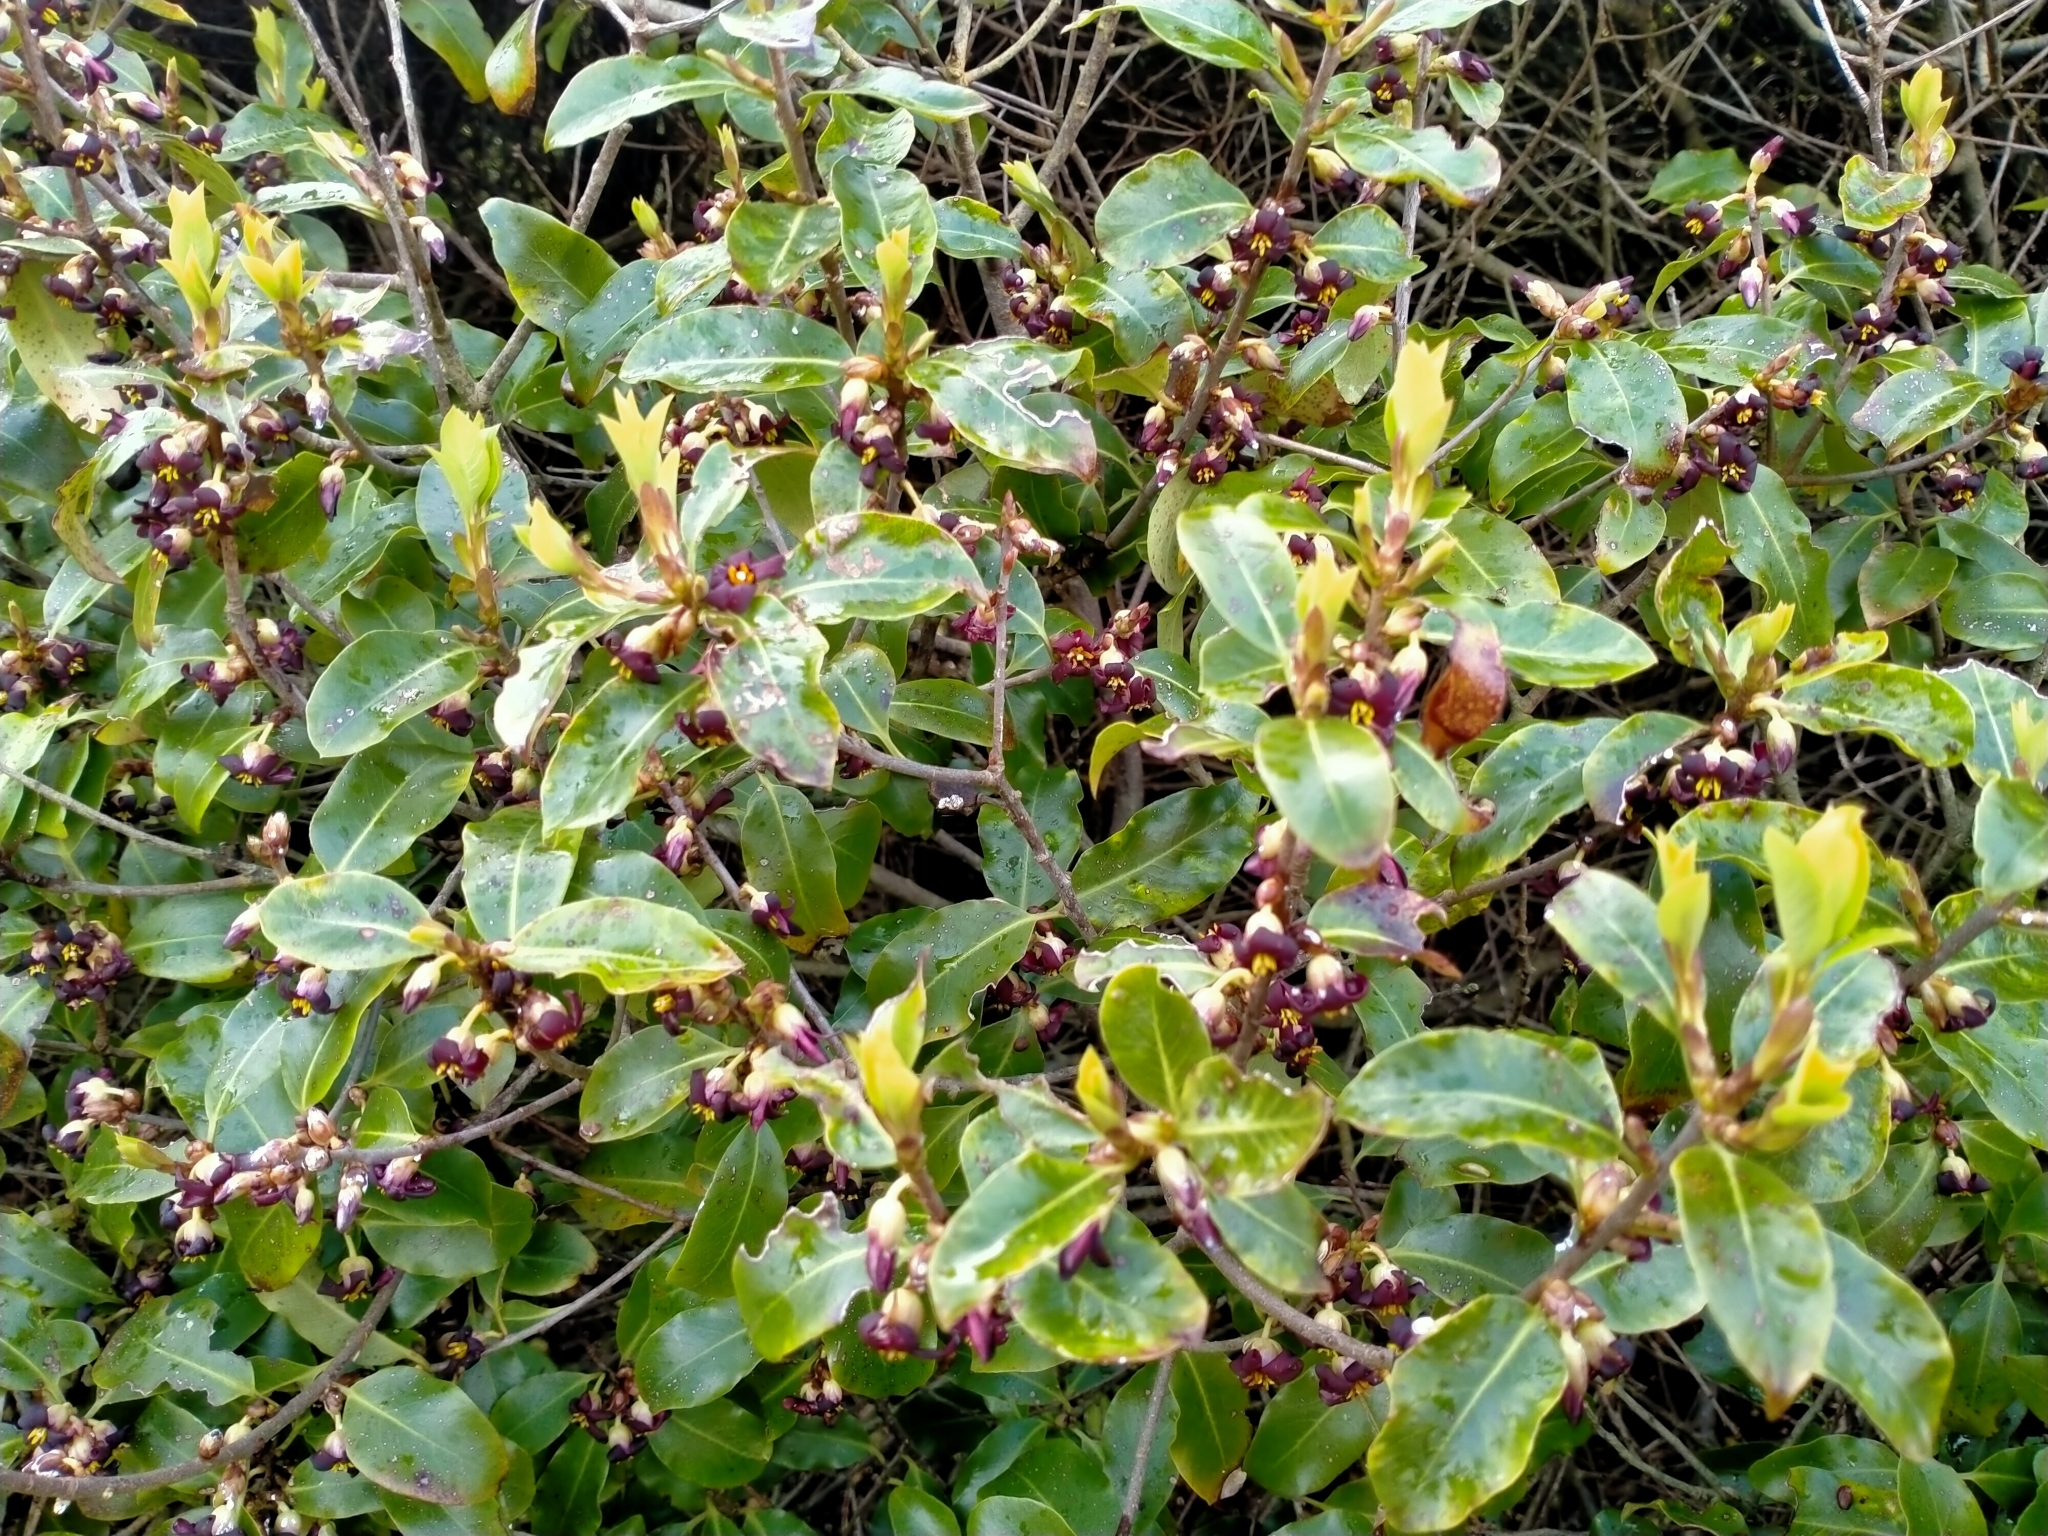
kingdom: Plantae
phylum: Tracheophyta
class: Magnoliopsida
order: Apiales
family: Pittosporaceae
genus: Pittosporum
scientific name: Pittosporum tenuifolium
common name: Kohuhu
